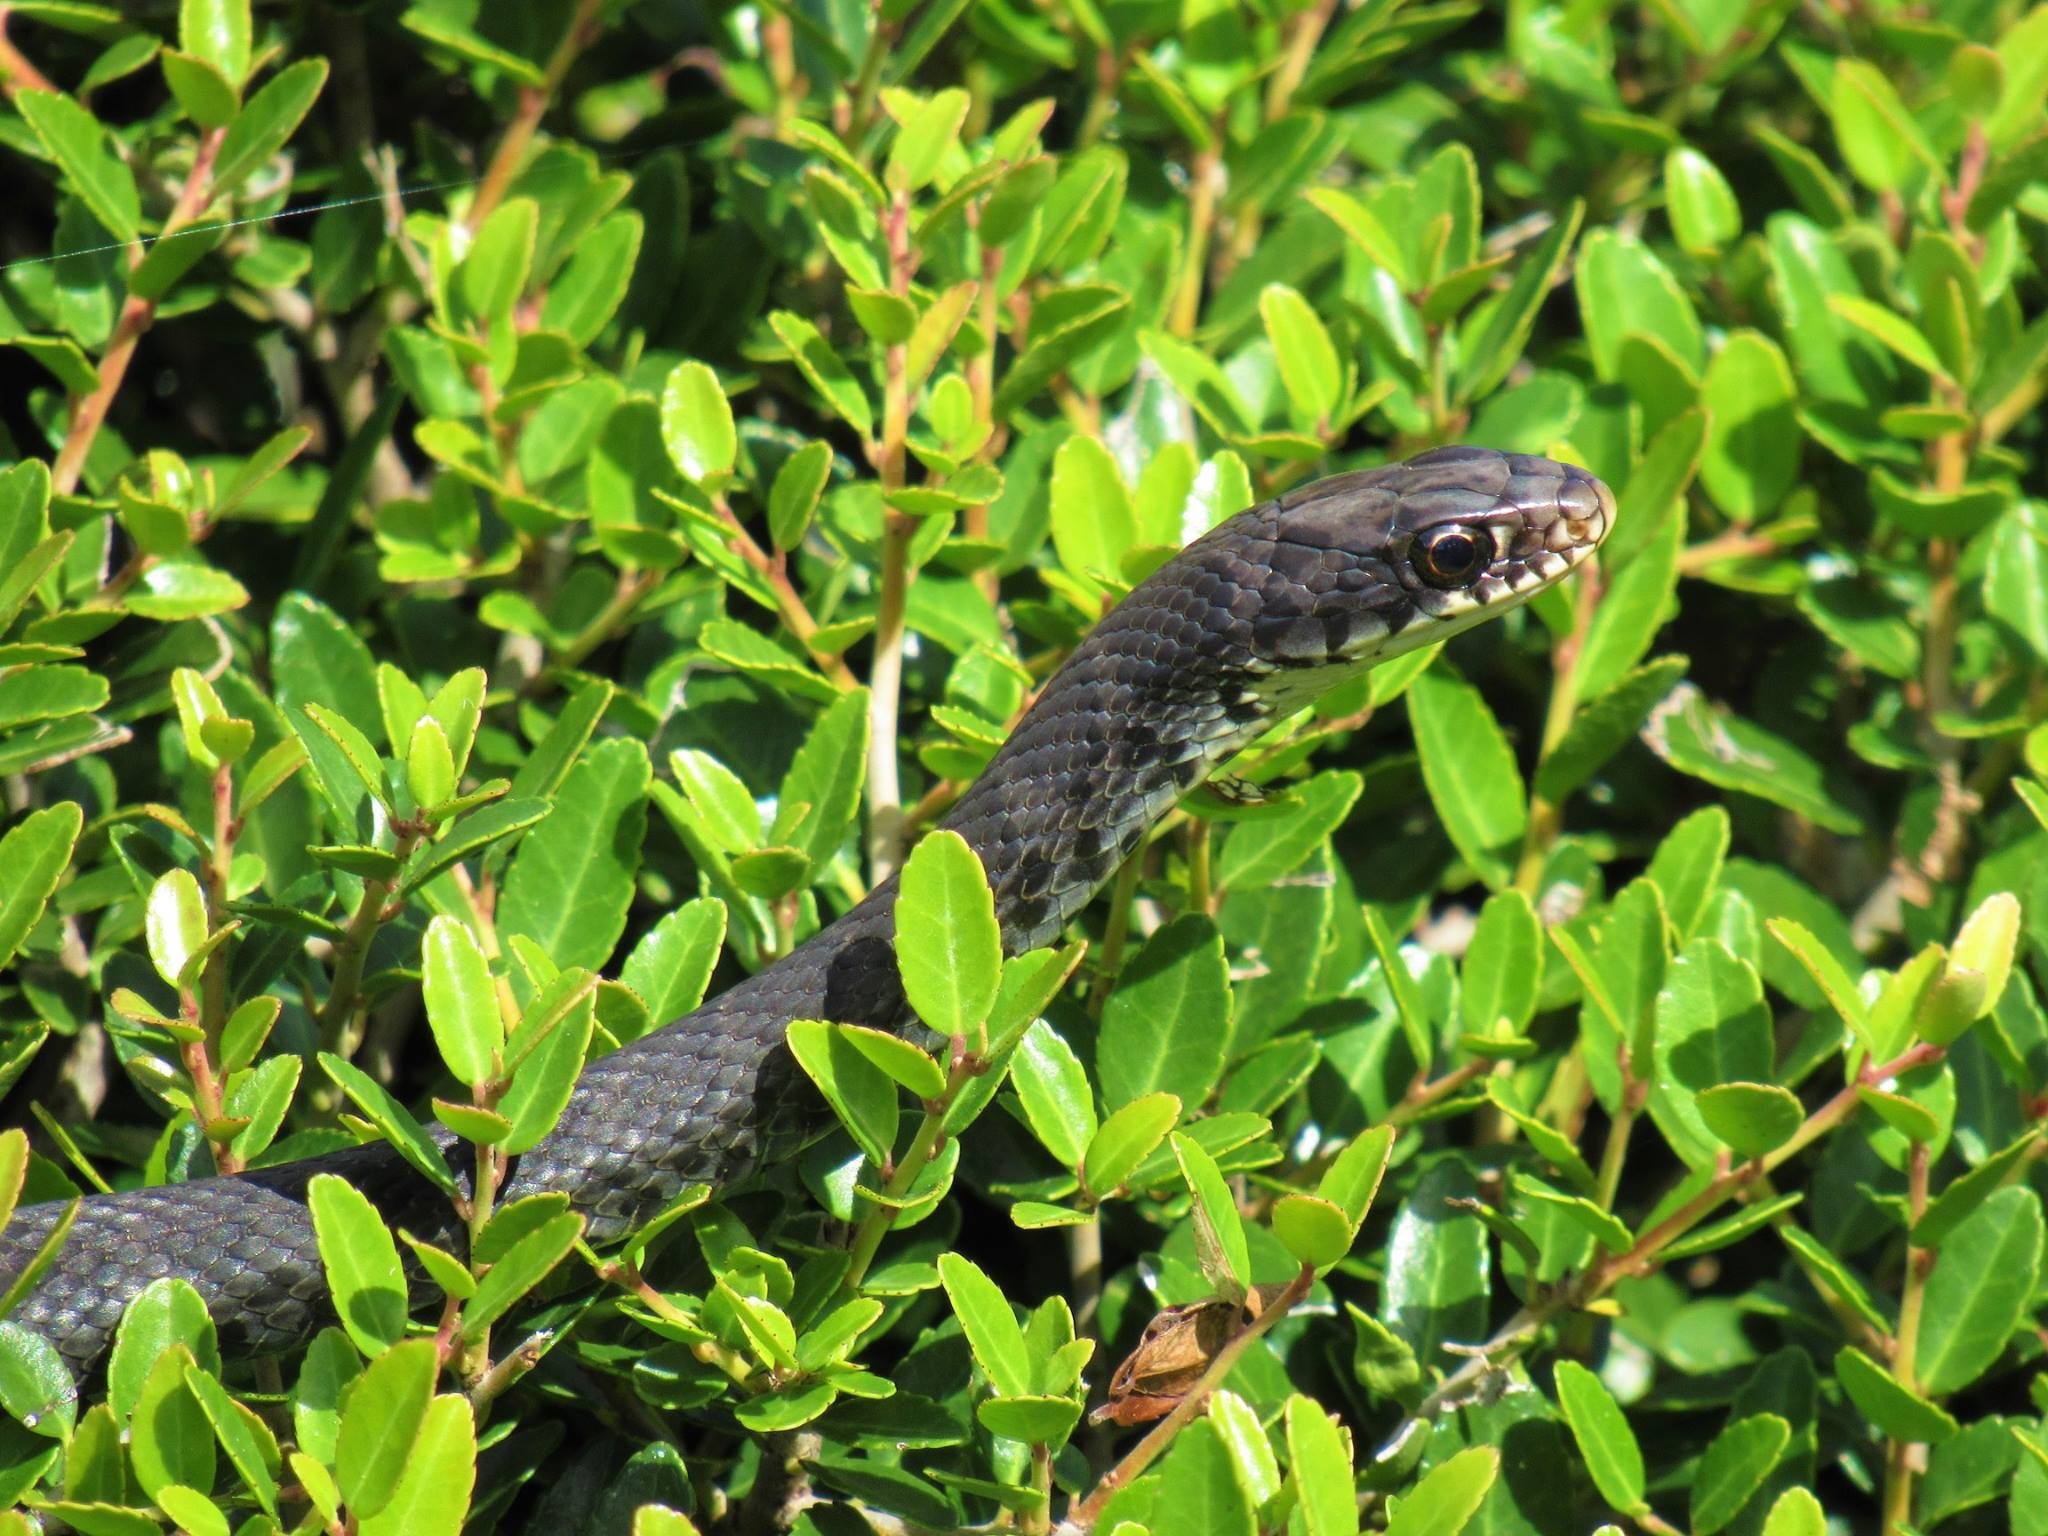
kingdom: Animalia
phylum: Chordata
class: Squamata
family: Colubridae
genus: Coluber
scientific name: Coluber constrictor
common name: Eastern racer
